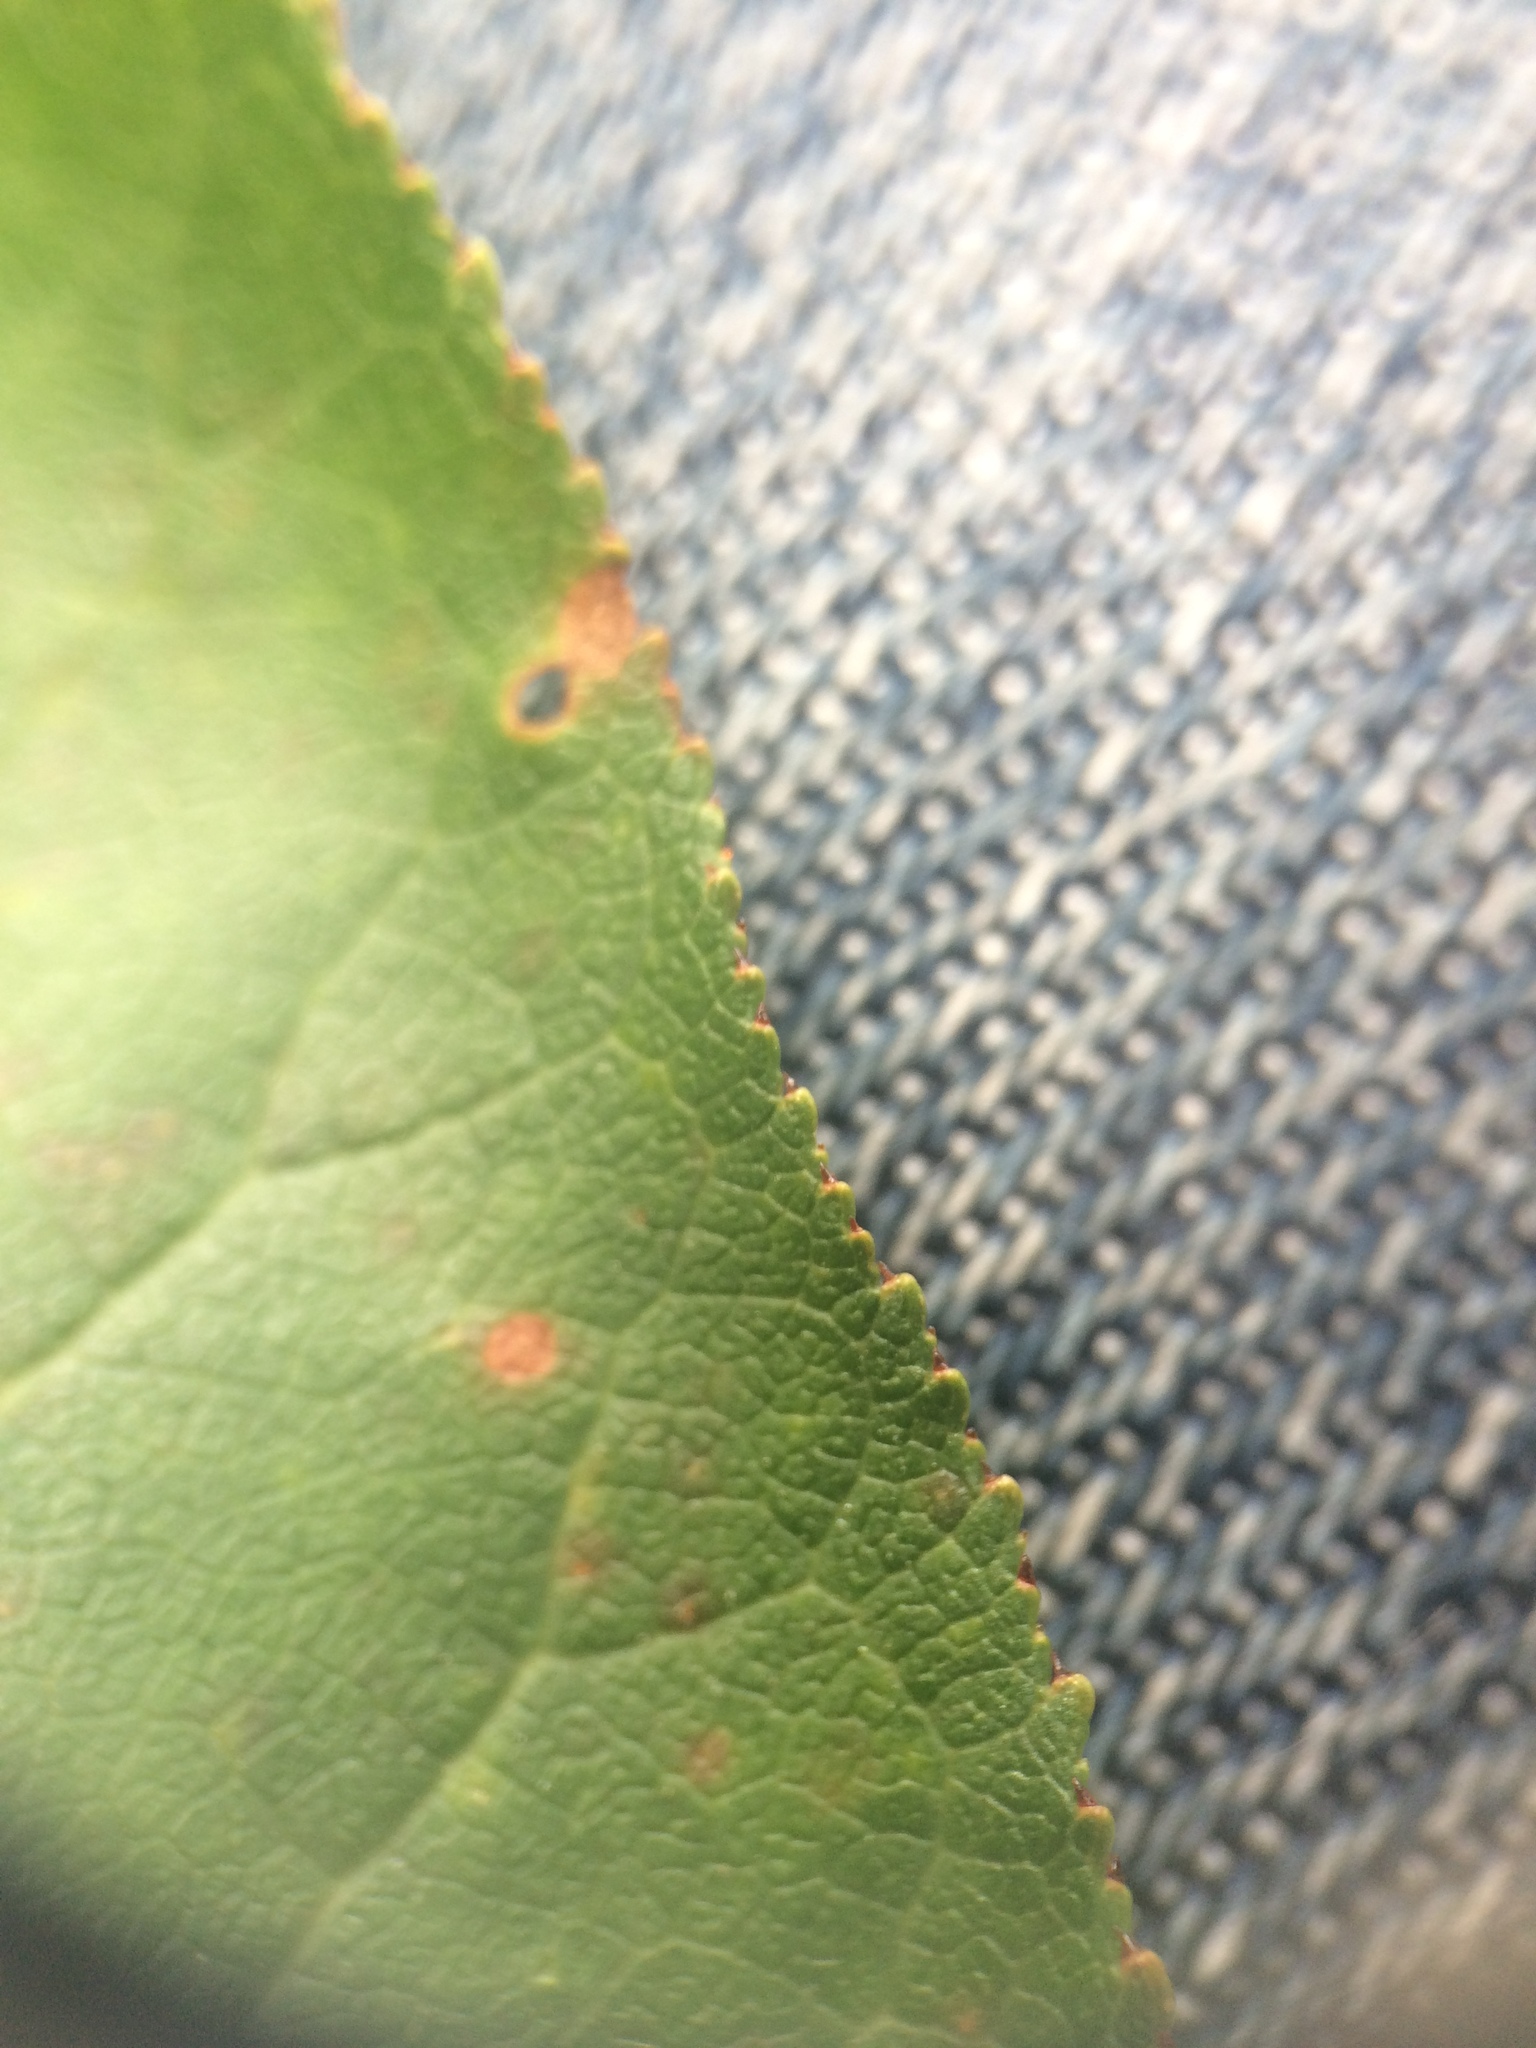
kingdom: Plantae
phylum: Tracheophyta
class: Magnoliopsida
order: Rosales
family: Rosaceae
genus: Prunus
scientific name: Prunus pensylvanica
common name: Pin cherry
